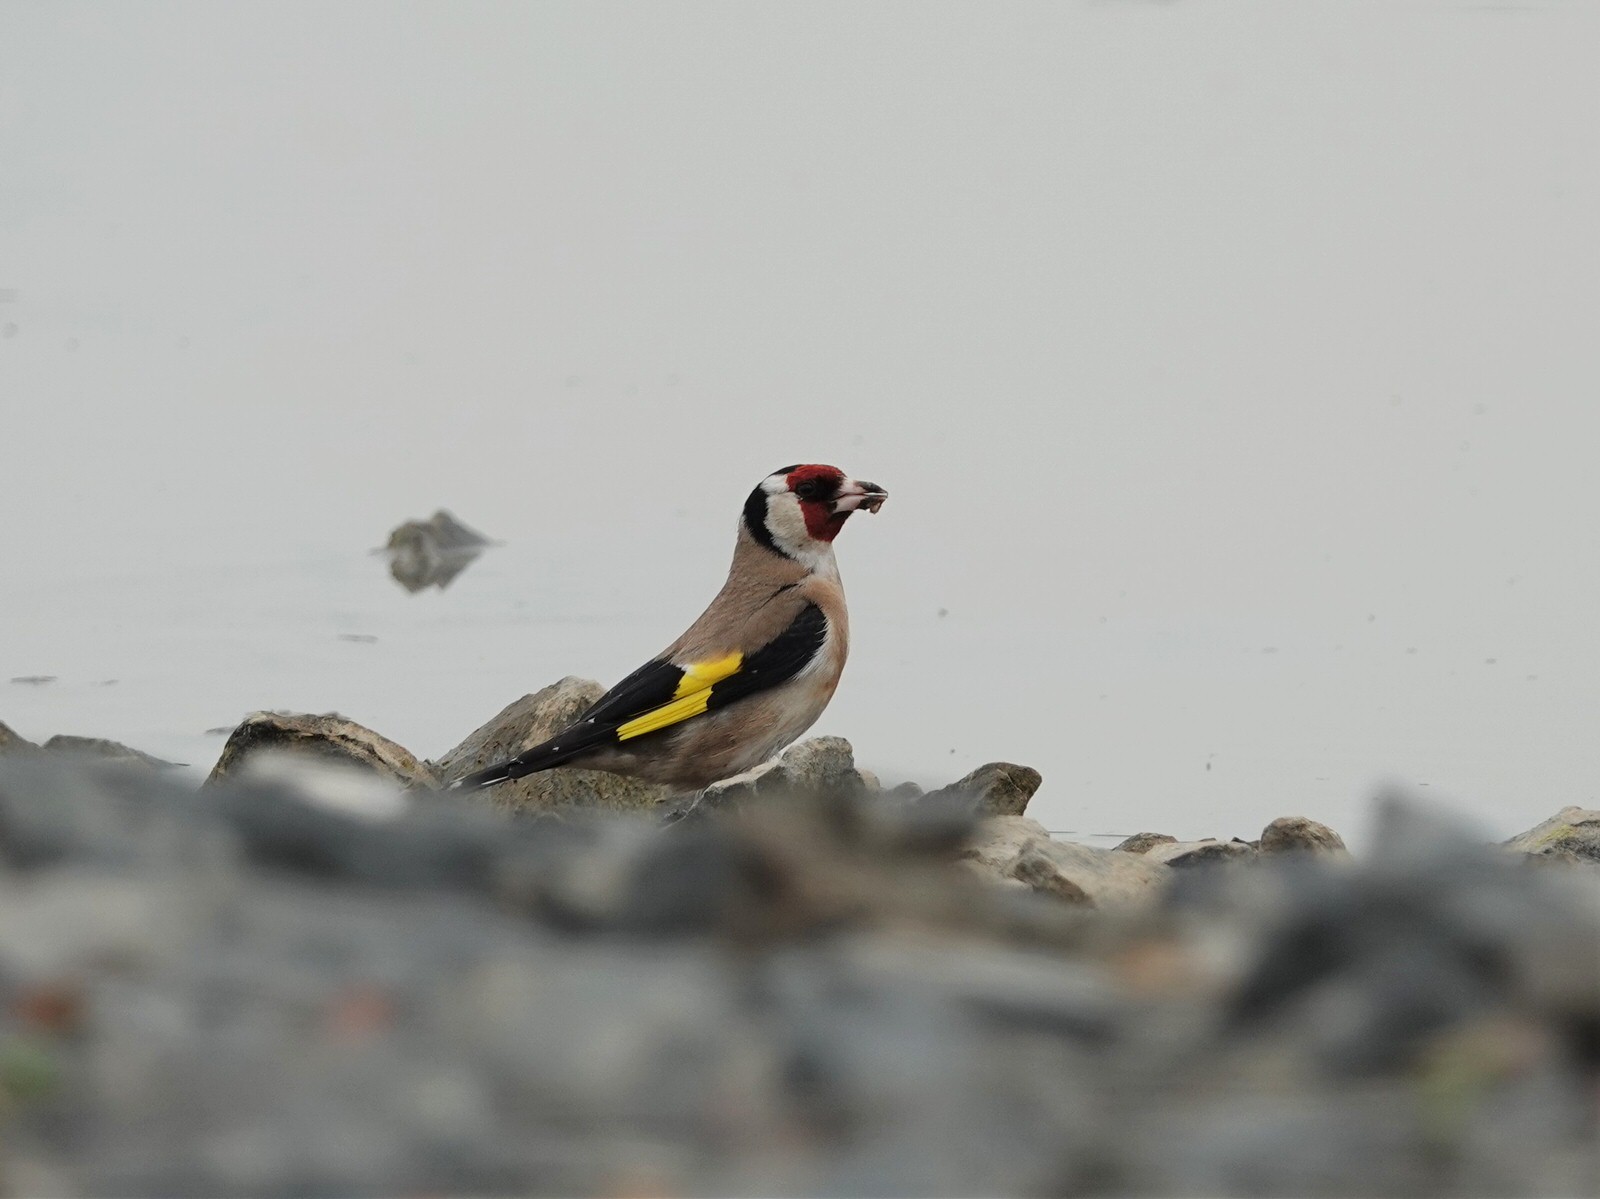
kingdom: Animalia
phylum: Chordata
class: Aves
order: Passeriformes
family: Fringillidae
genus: Carduelis
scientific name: Carduelis carduelis
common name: European goldfinch
